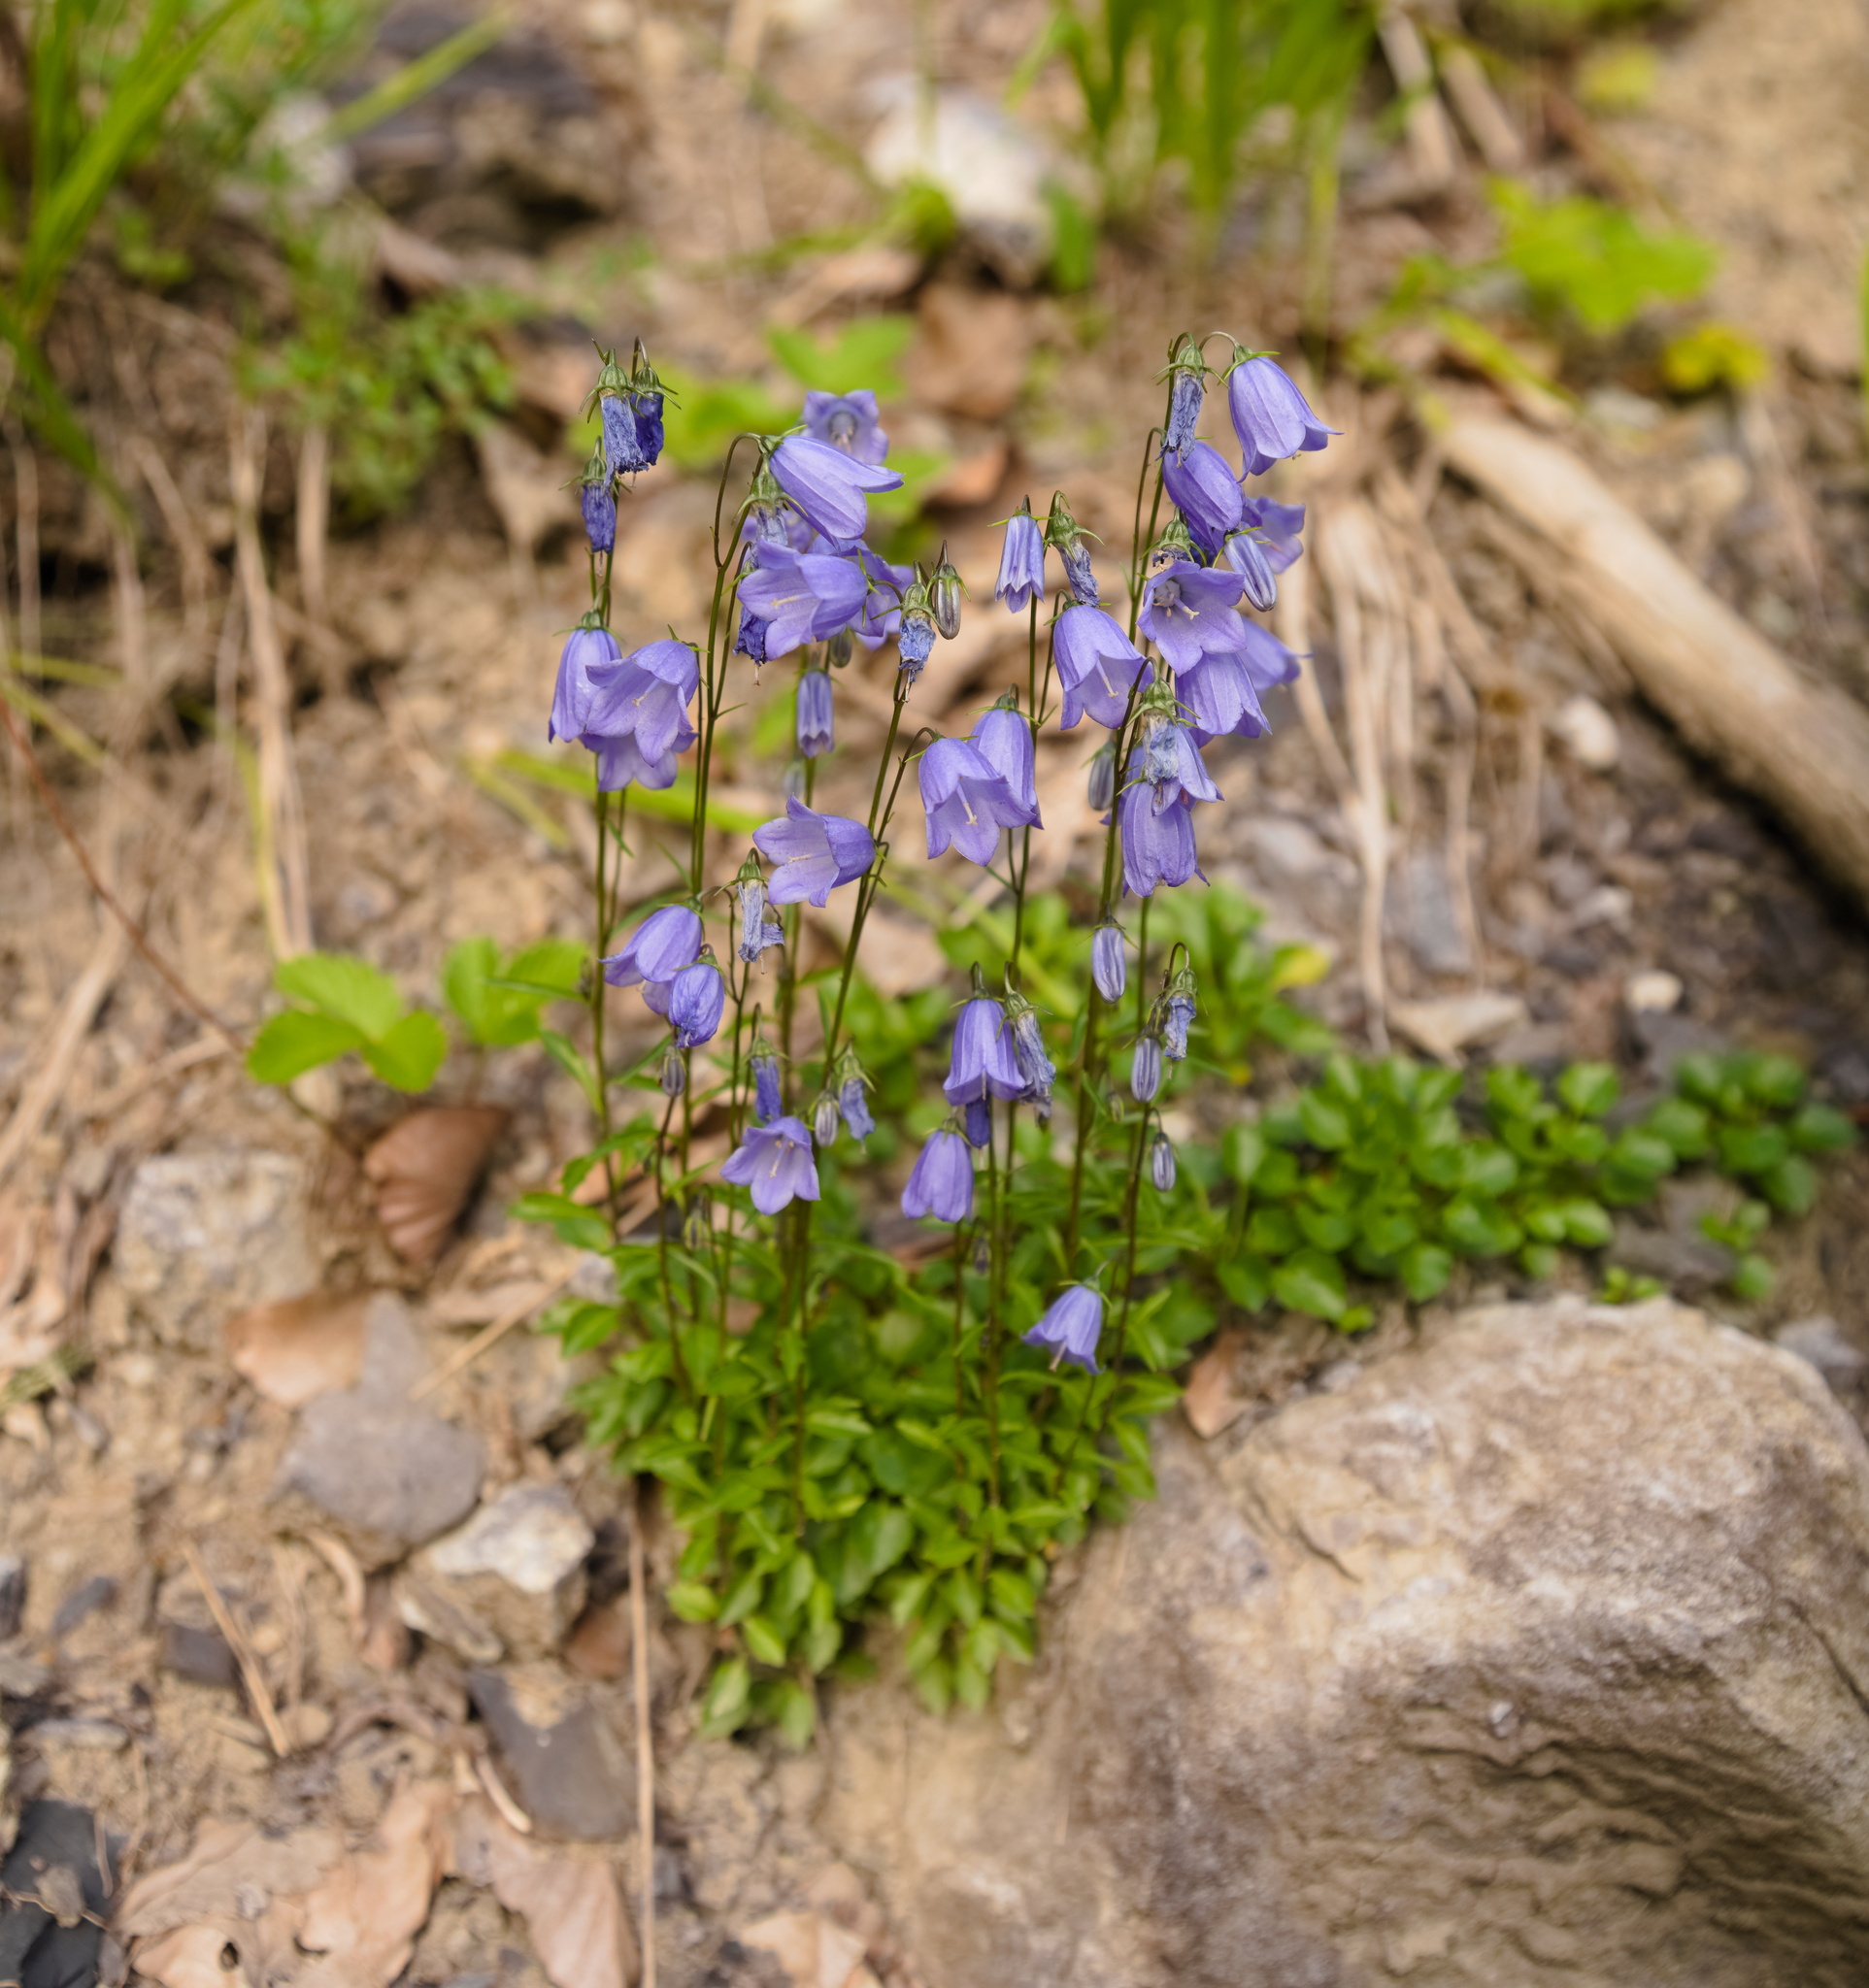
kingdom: Plantae
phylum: Tracheophyta
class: Magnoliopsida
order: Asterales
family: Campanulaceae
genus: Campanula
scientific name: Campanula cochleariifolia
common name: Fairies'-thimbles
